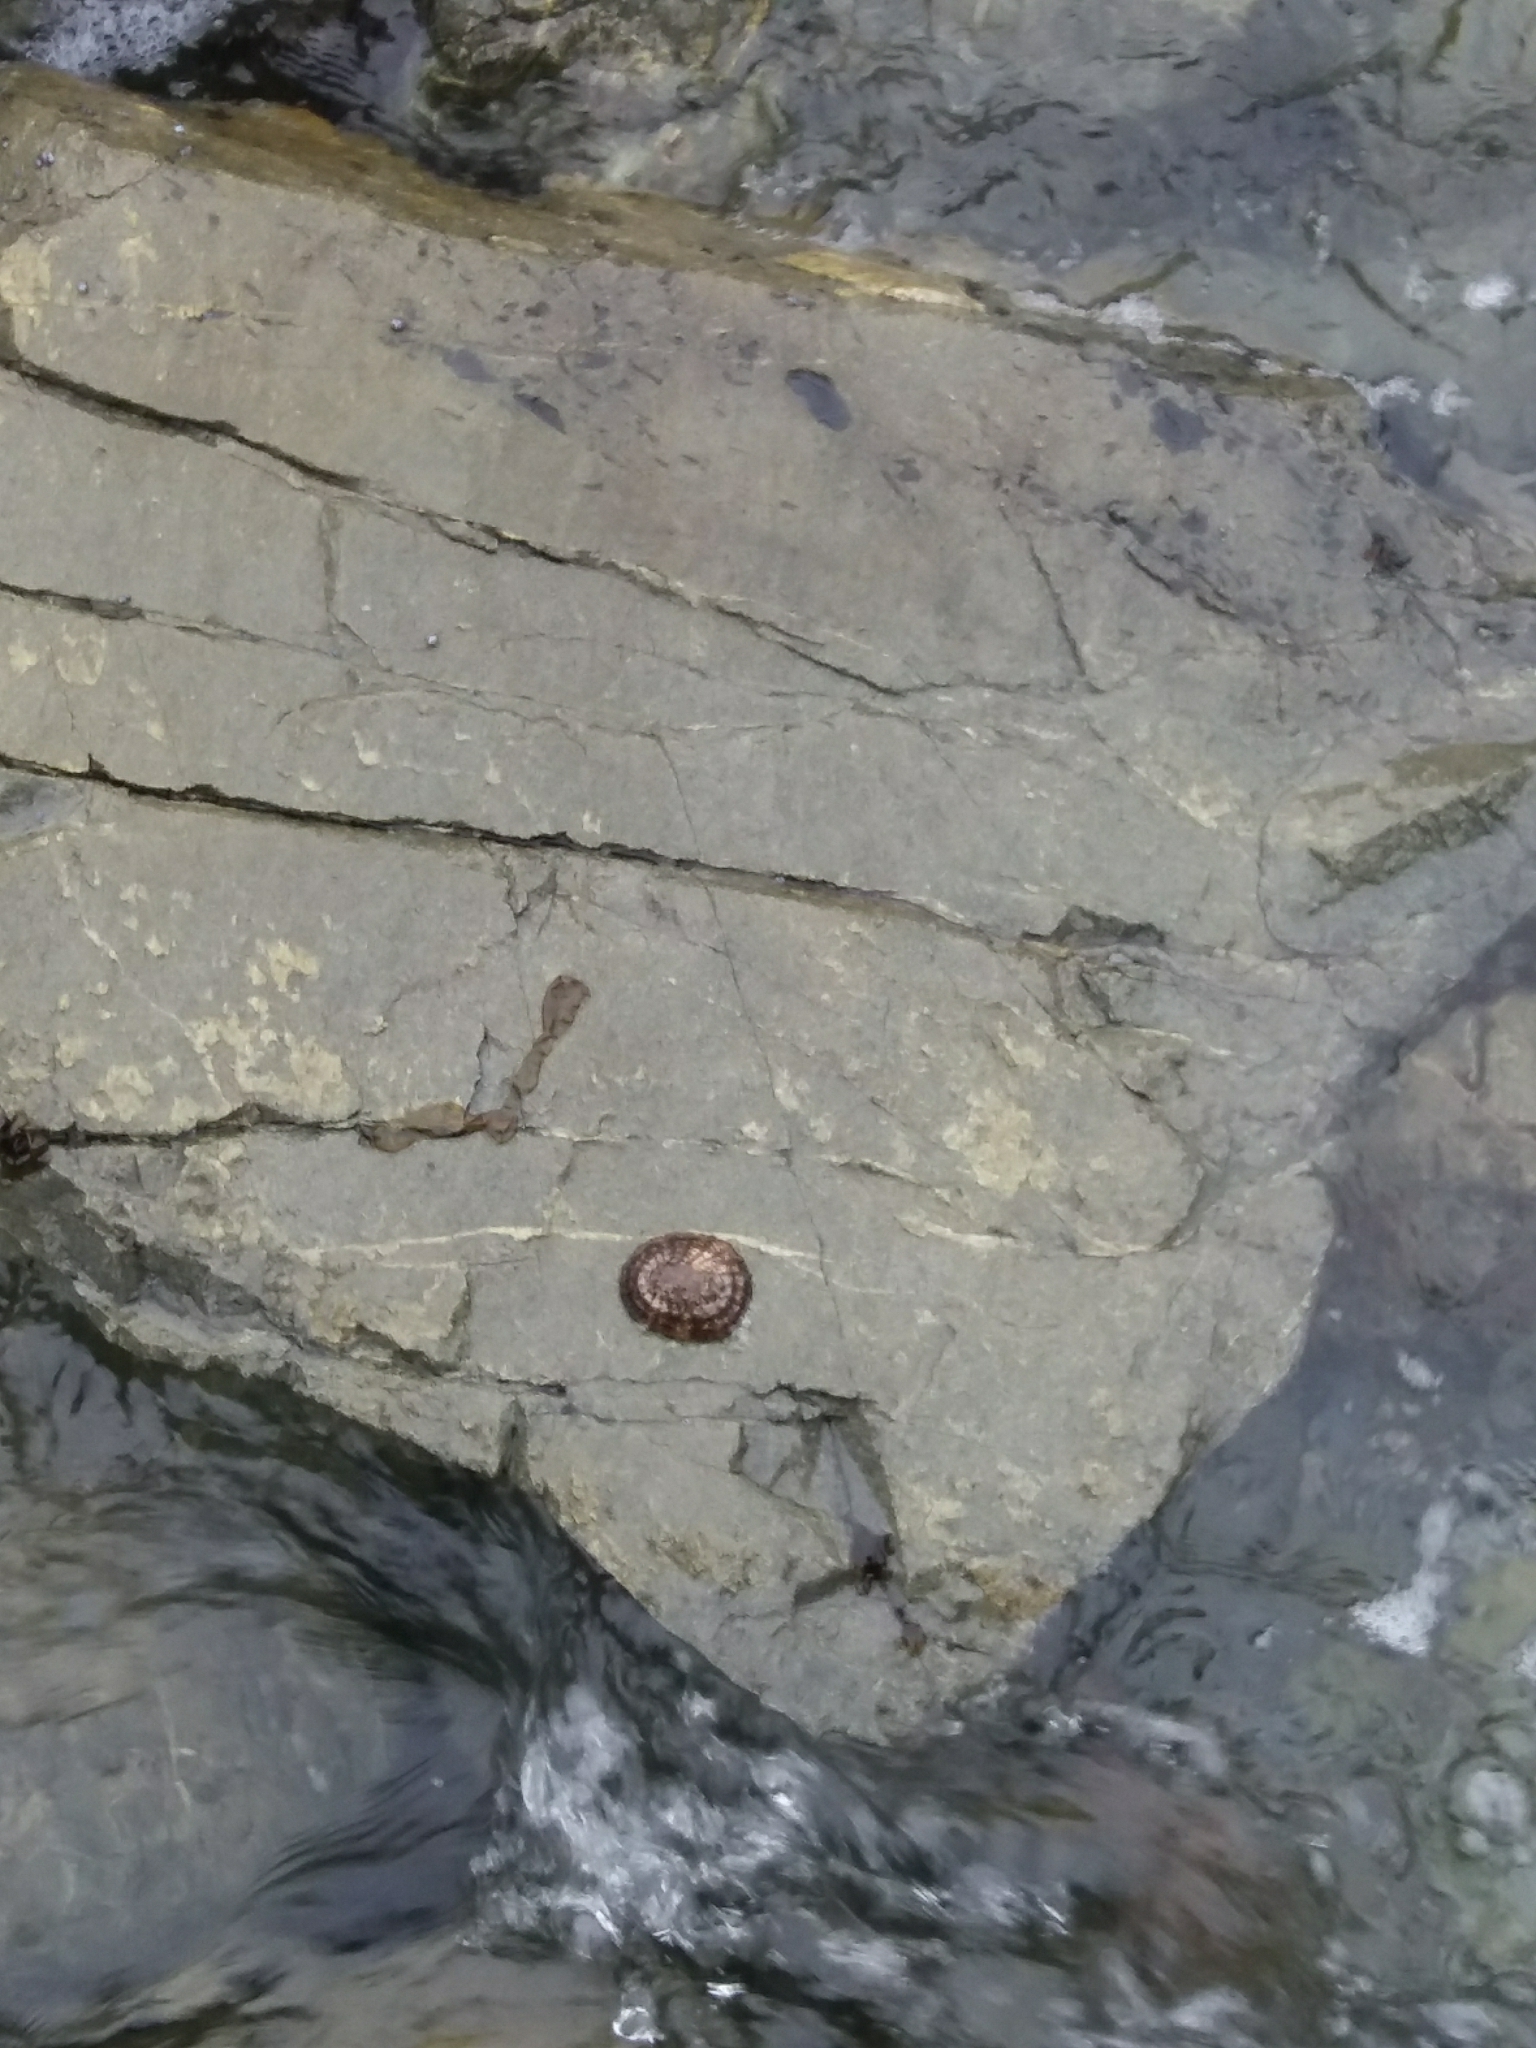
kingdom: Animalia
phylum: Mollusca
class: Gastropoda
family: Nacellidae
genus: Cellana
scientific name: Cellana denticulata
